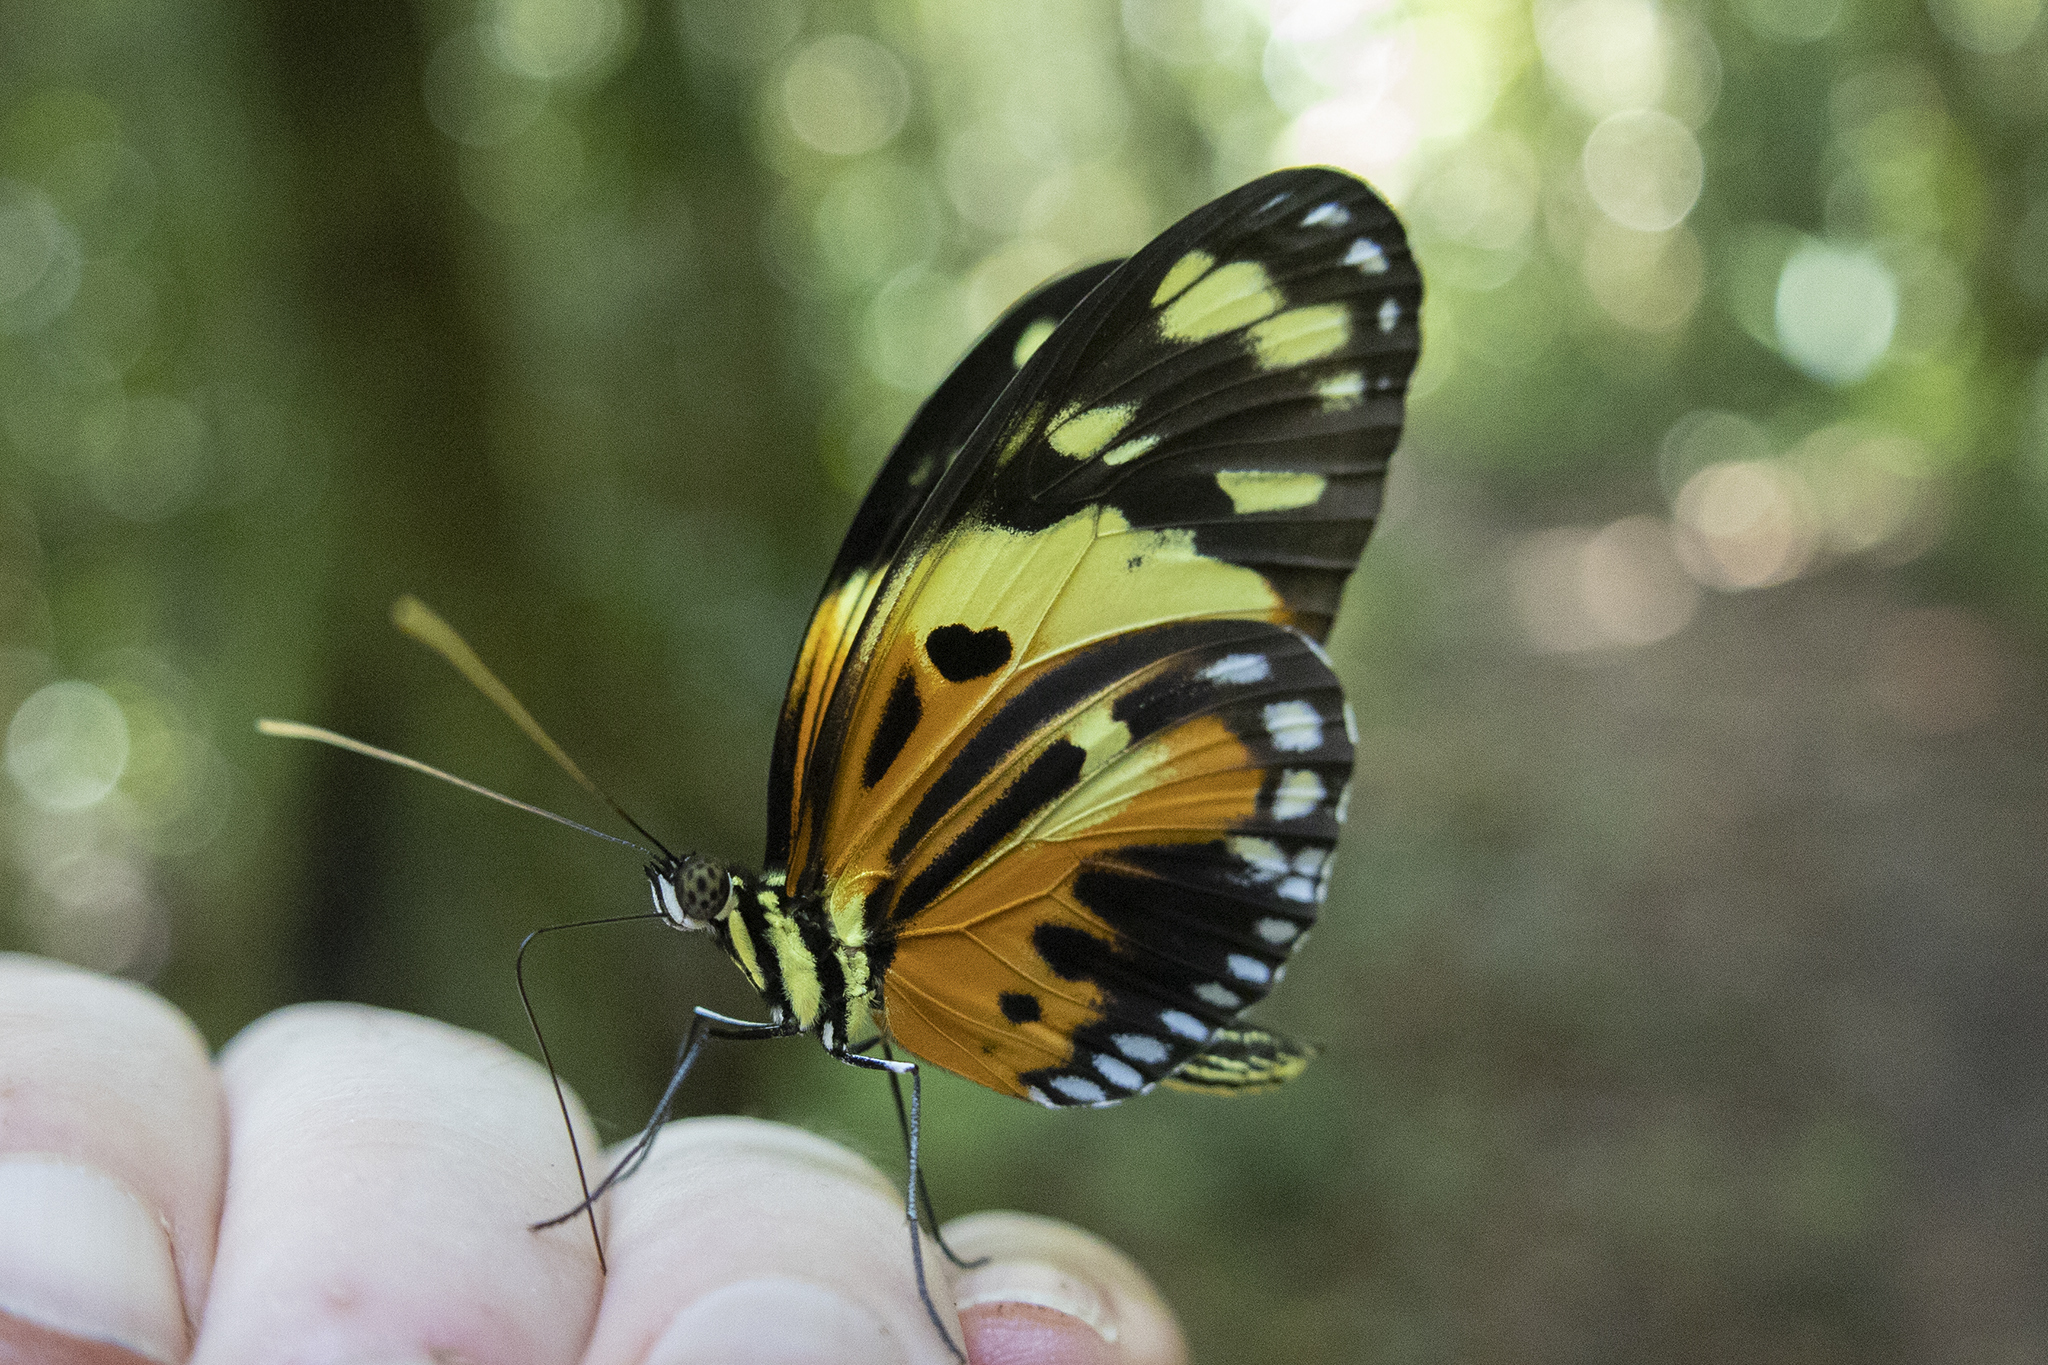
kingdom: Animalia
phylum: Arthropoda
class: Insecta
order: Lepidoptera
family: Nymphalidae
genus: Heliconius
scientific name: Heliconius numatus
